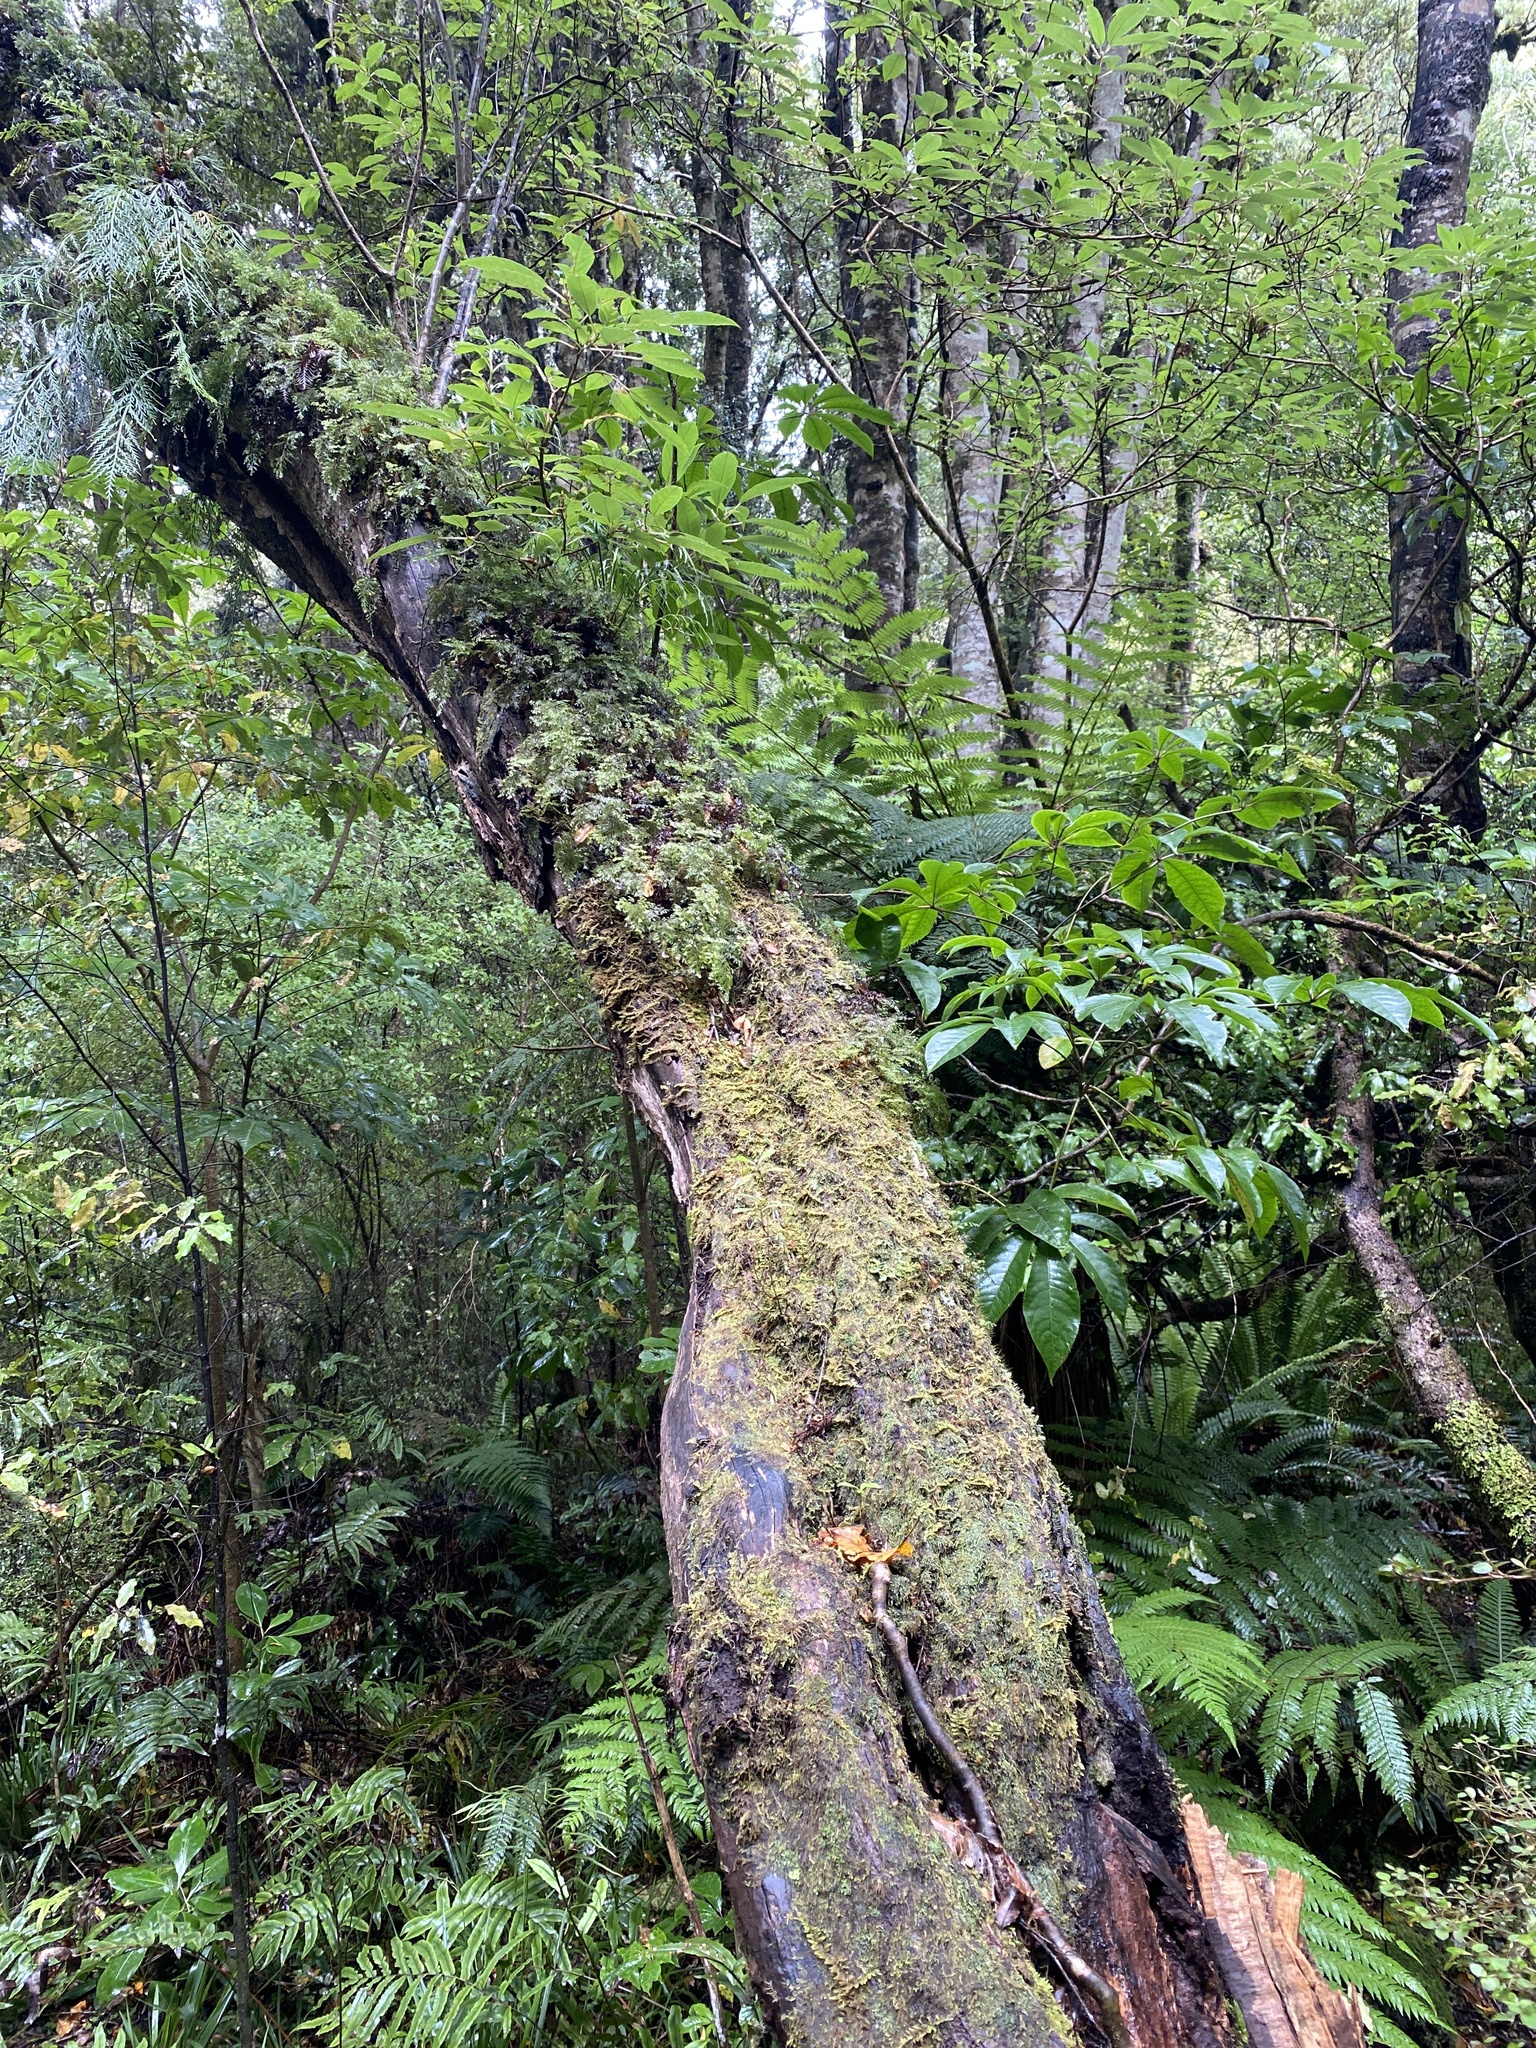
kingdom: Plantae
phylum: Tracheophyta
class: Magnoliopsida
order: Apiales
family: Araliaceae
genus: Schefflera
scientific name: Schefflera digitata
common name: Pate
